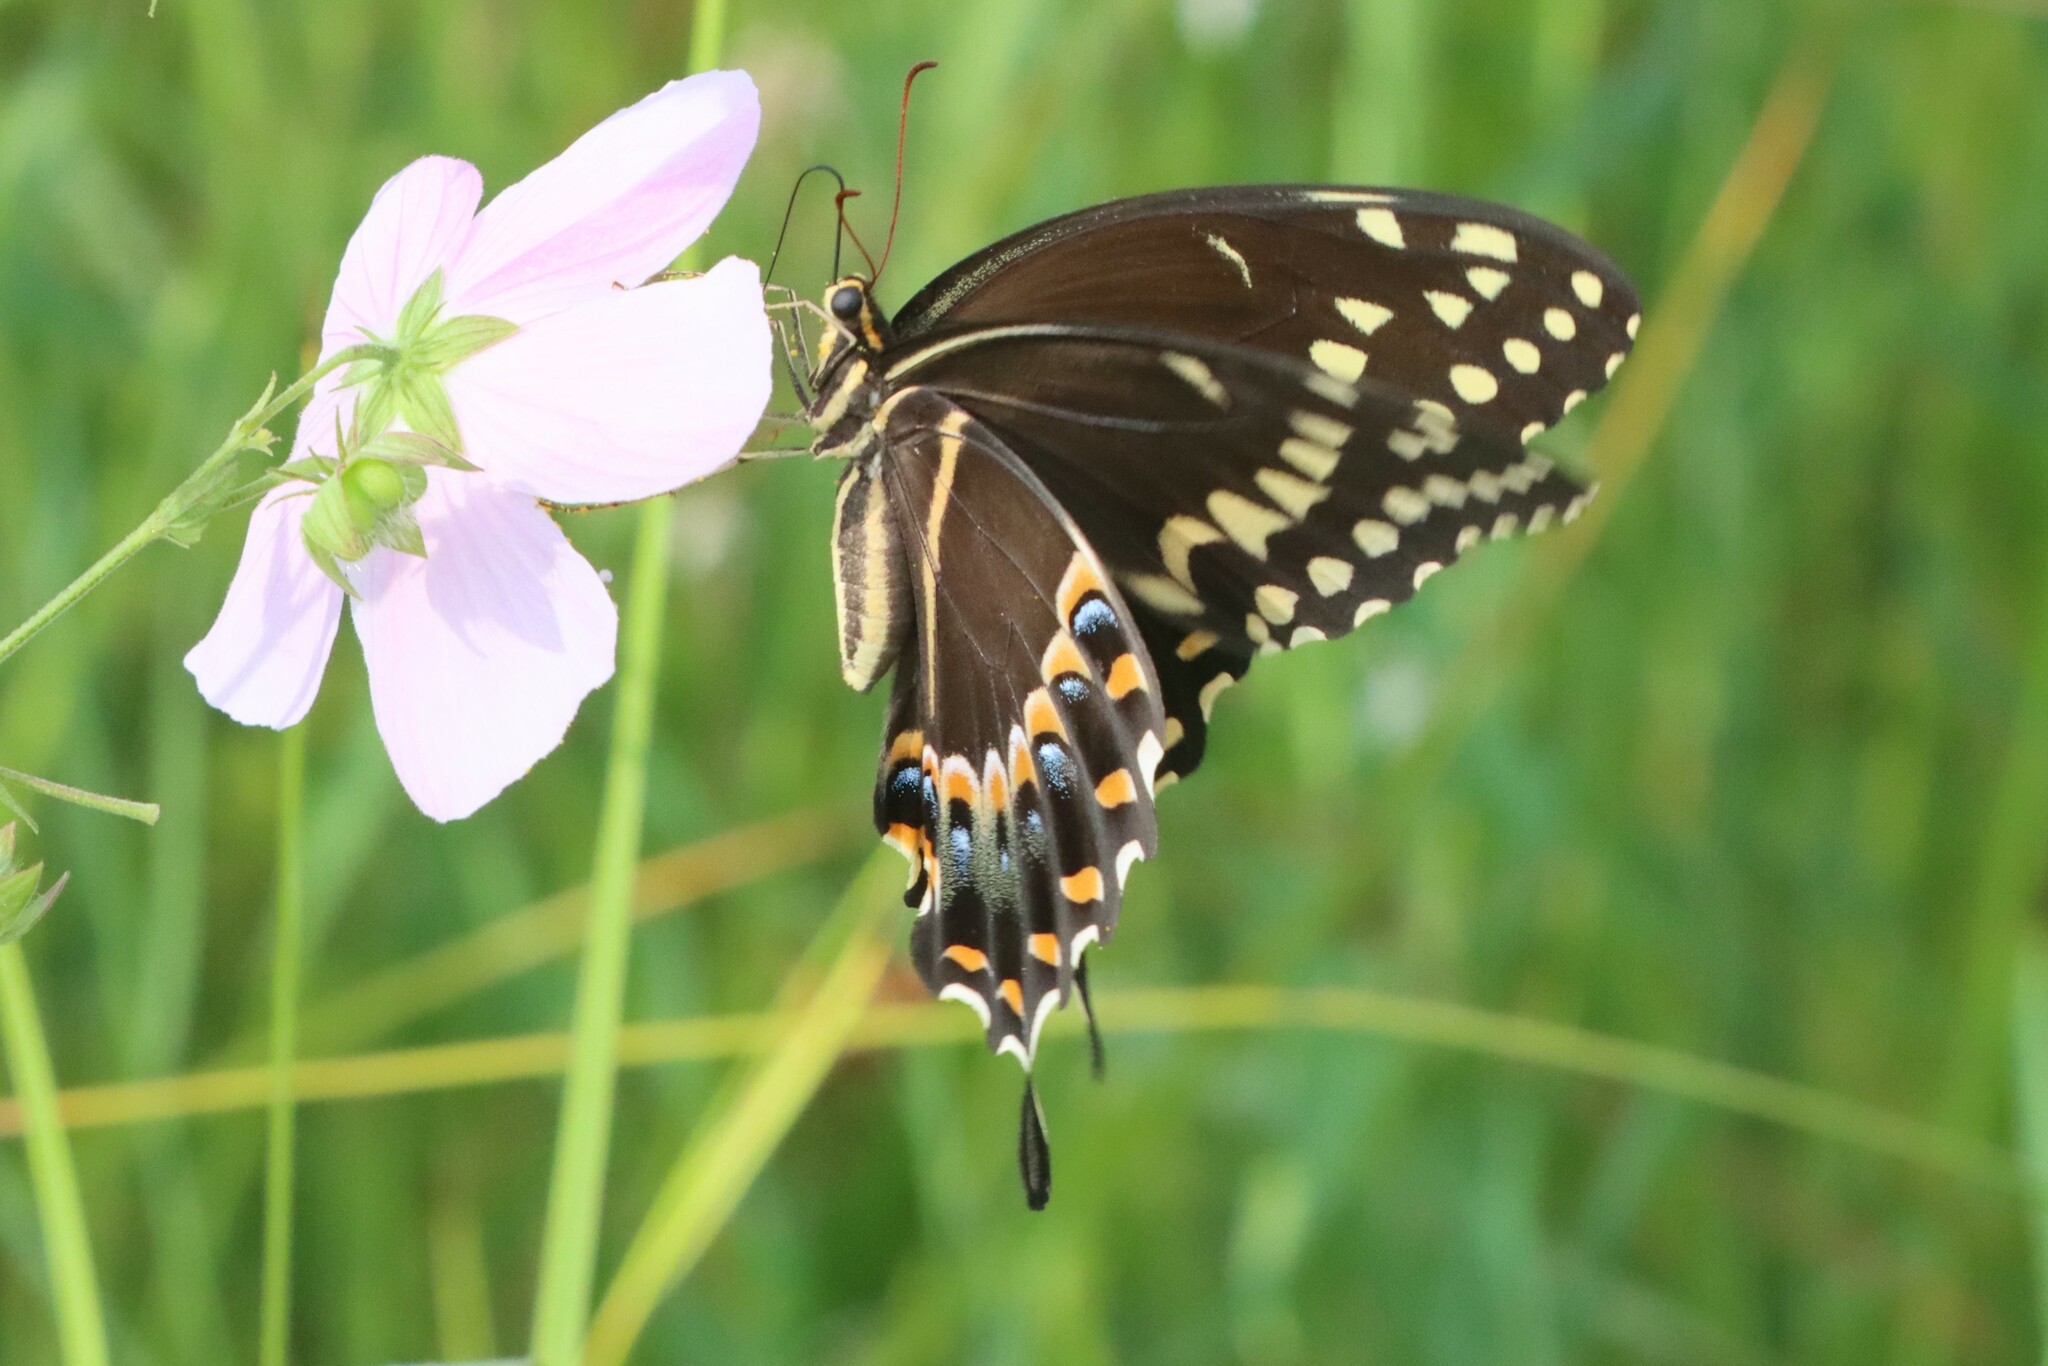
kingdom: Animalia
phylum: Arthropoda
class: Insecta
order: Lepidoptera
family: Papilionidae
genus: Papilio
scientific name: Papilio palamedes
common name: Palamedes swallowtail
